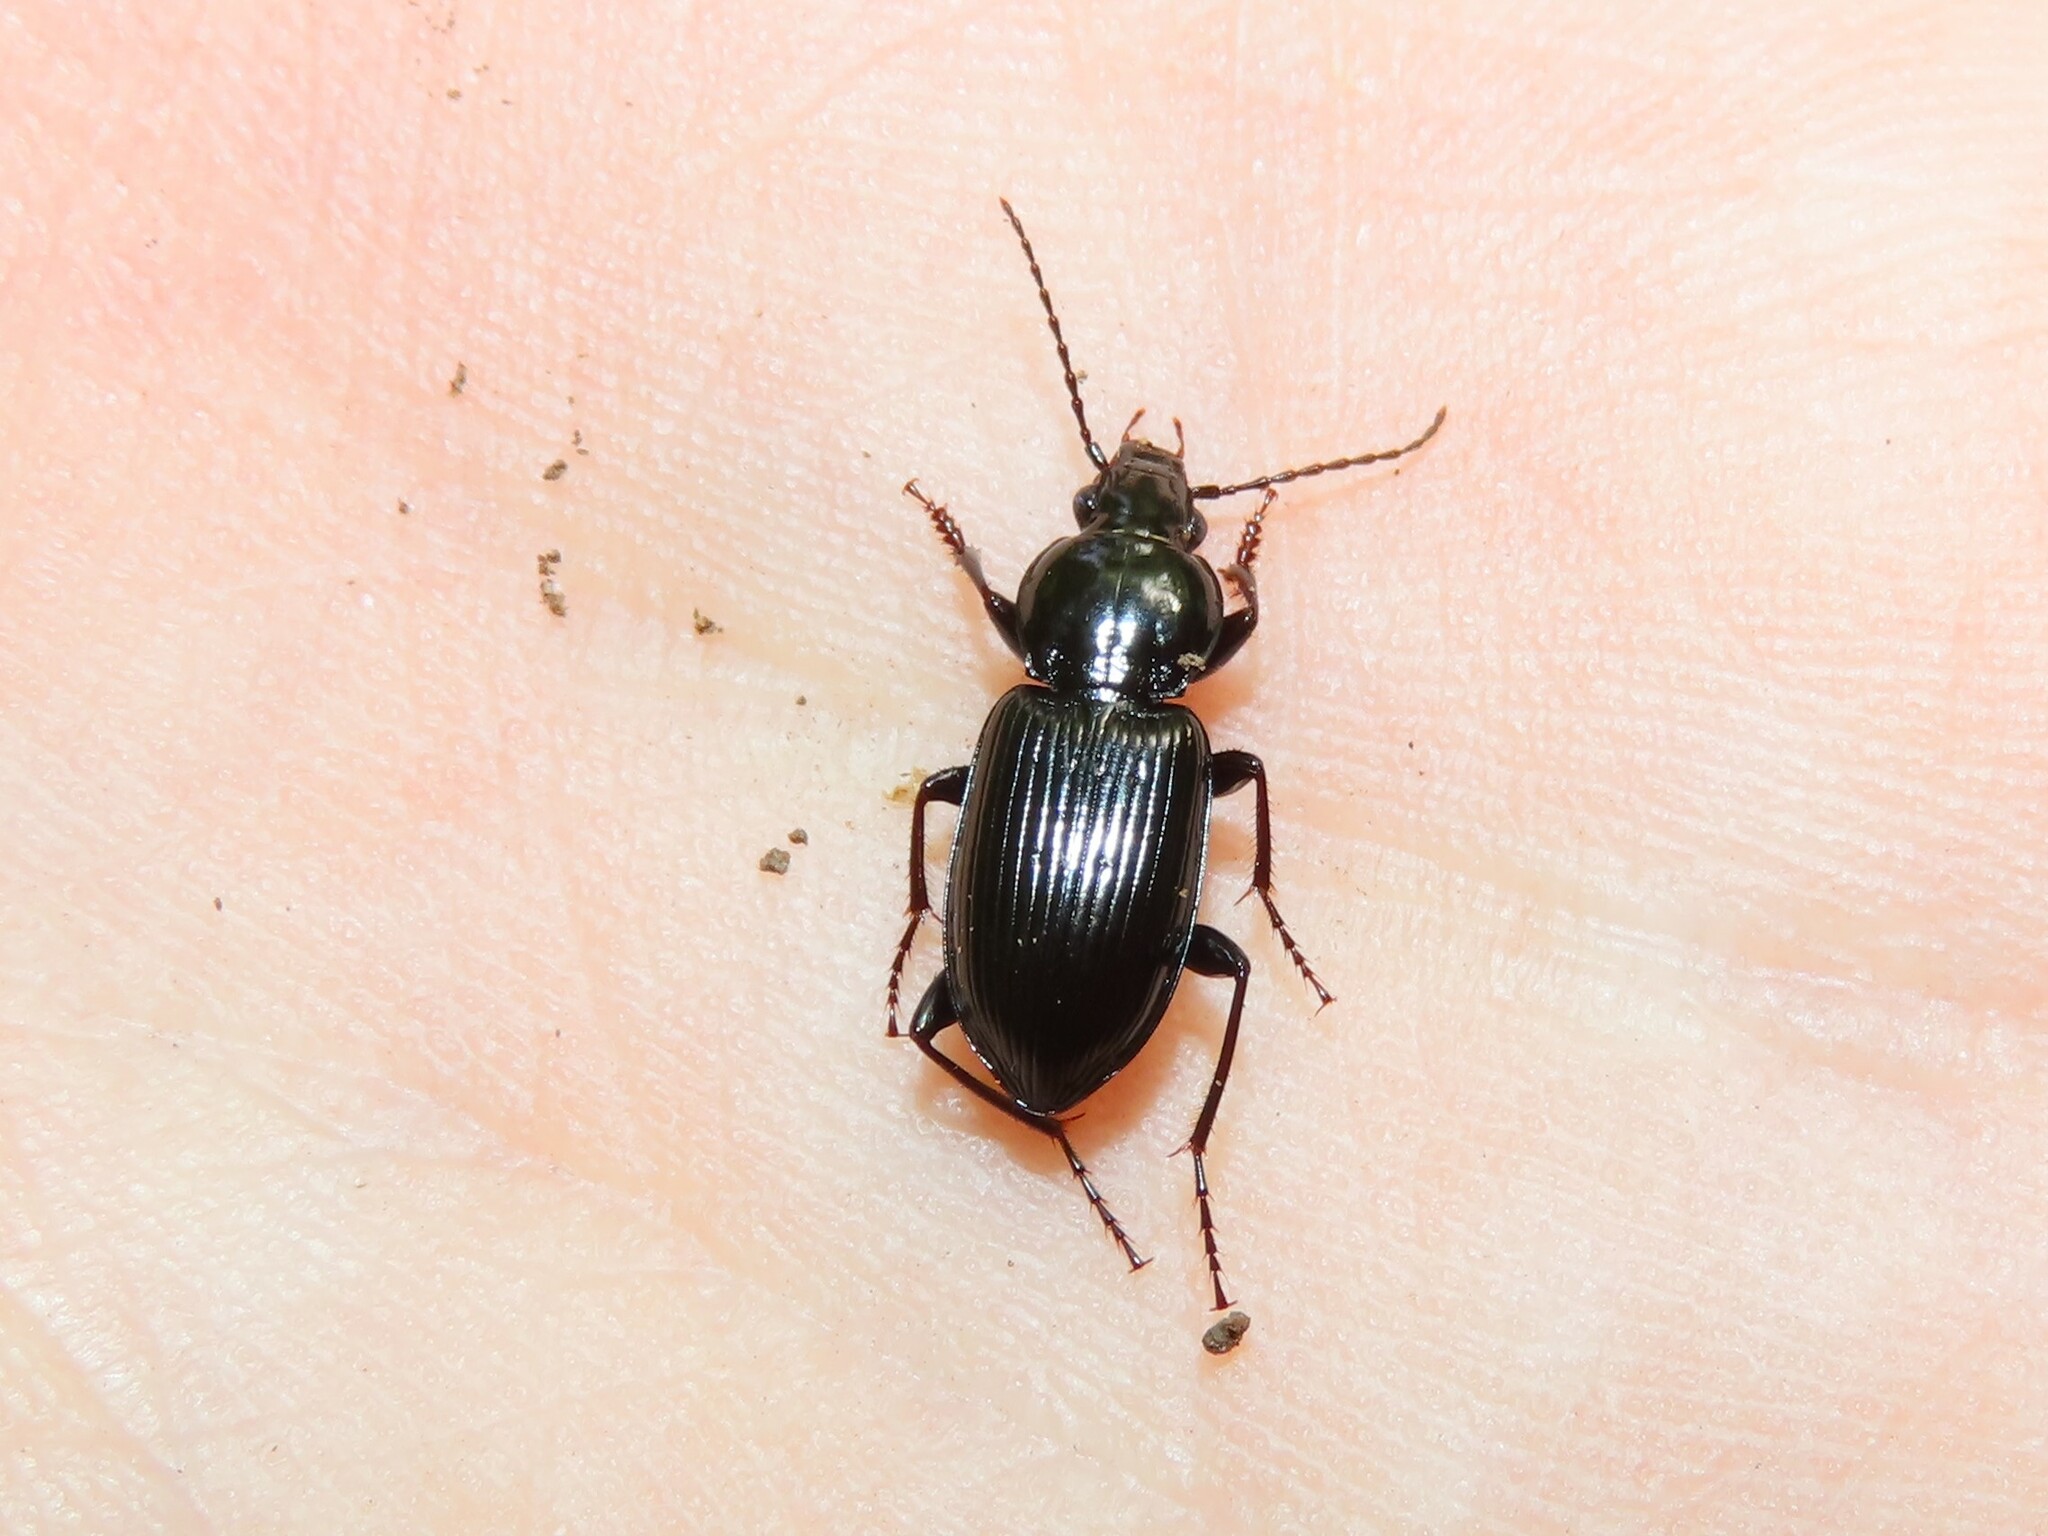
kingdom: Animalia
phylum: Arthropoda
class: Insecta
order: Coleoptera
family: Carabidae
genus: Pterostichus
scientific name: Pterostichus mutus
